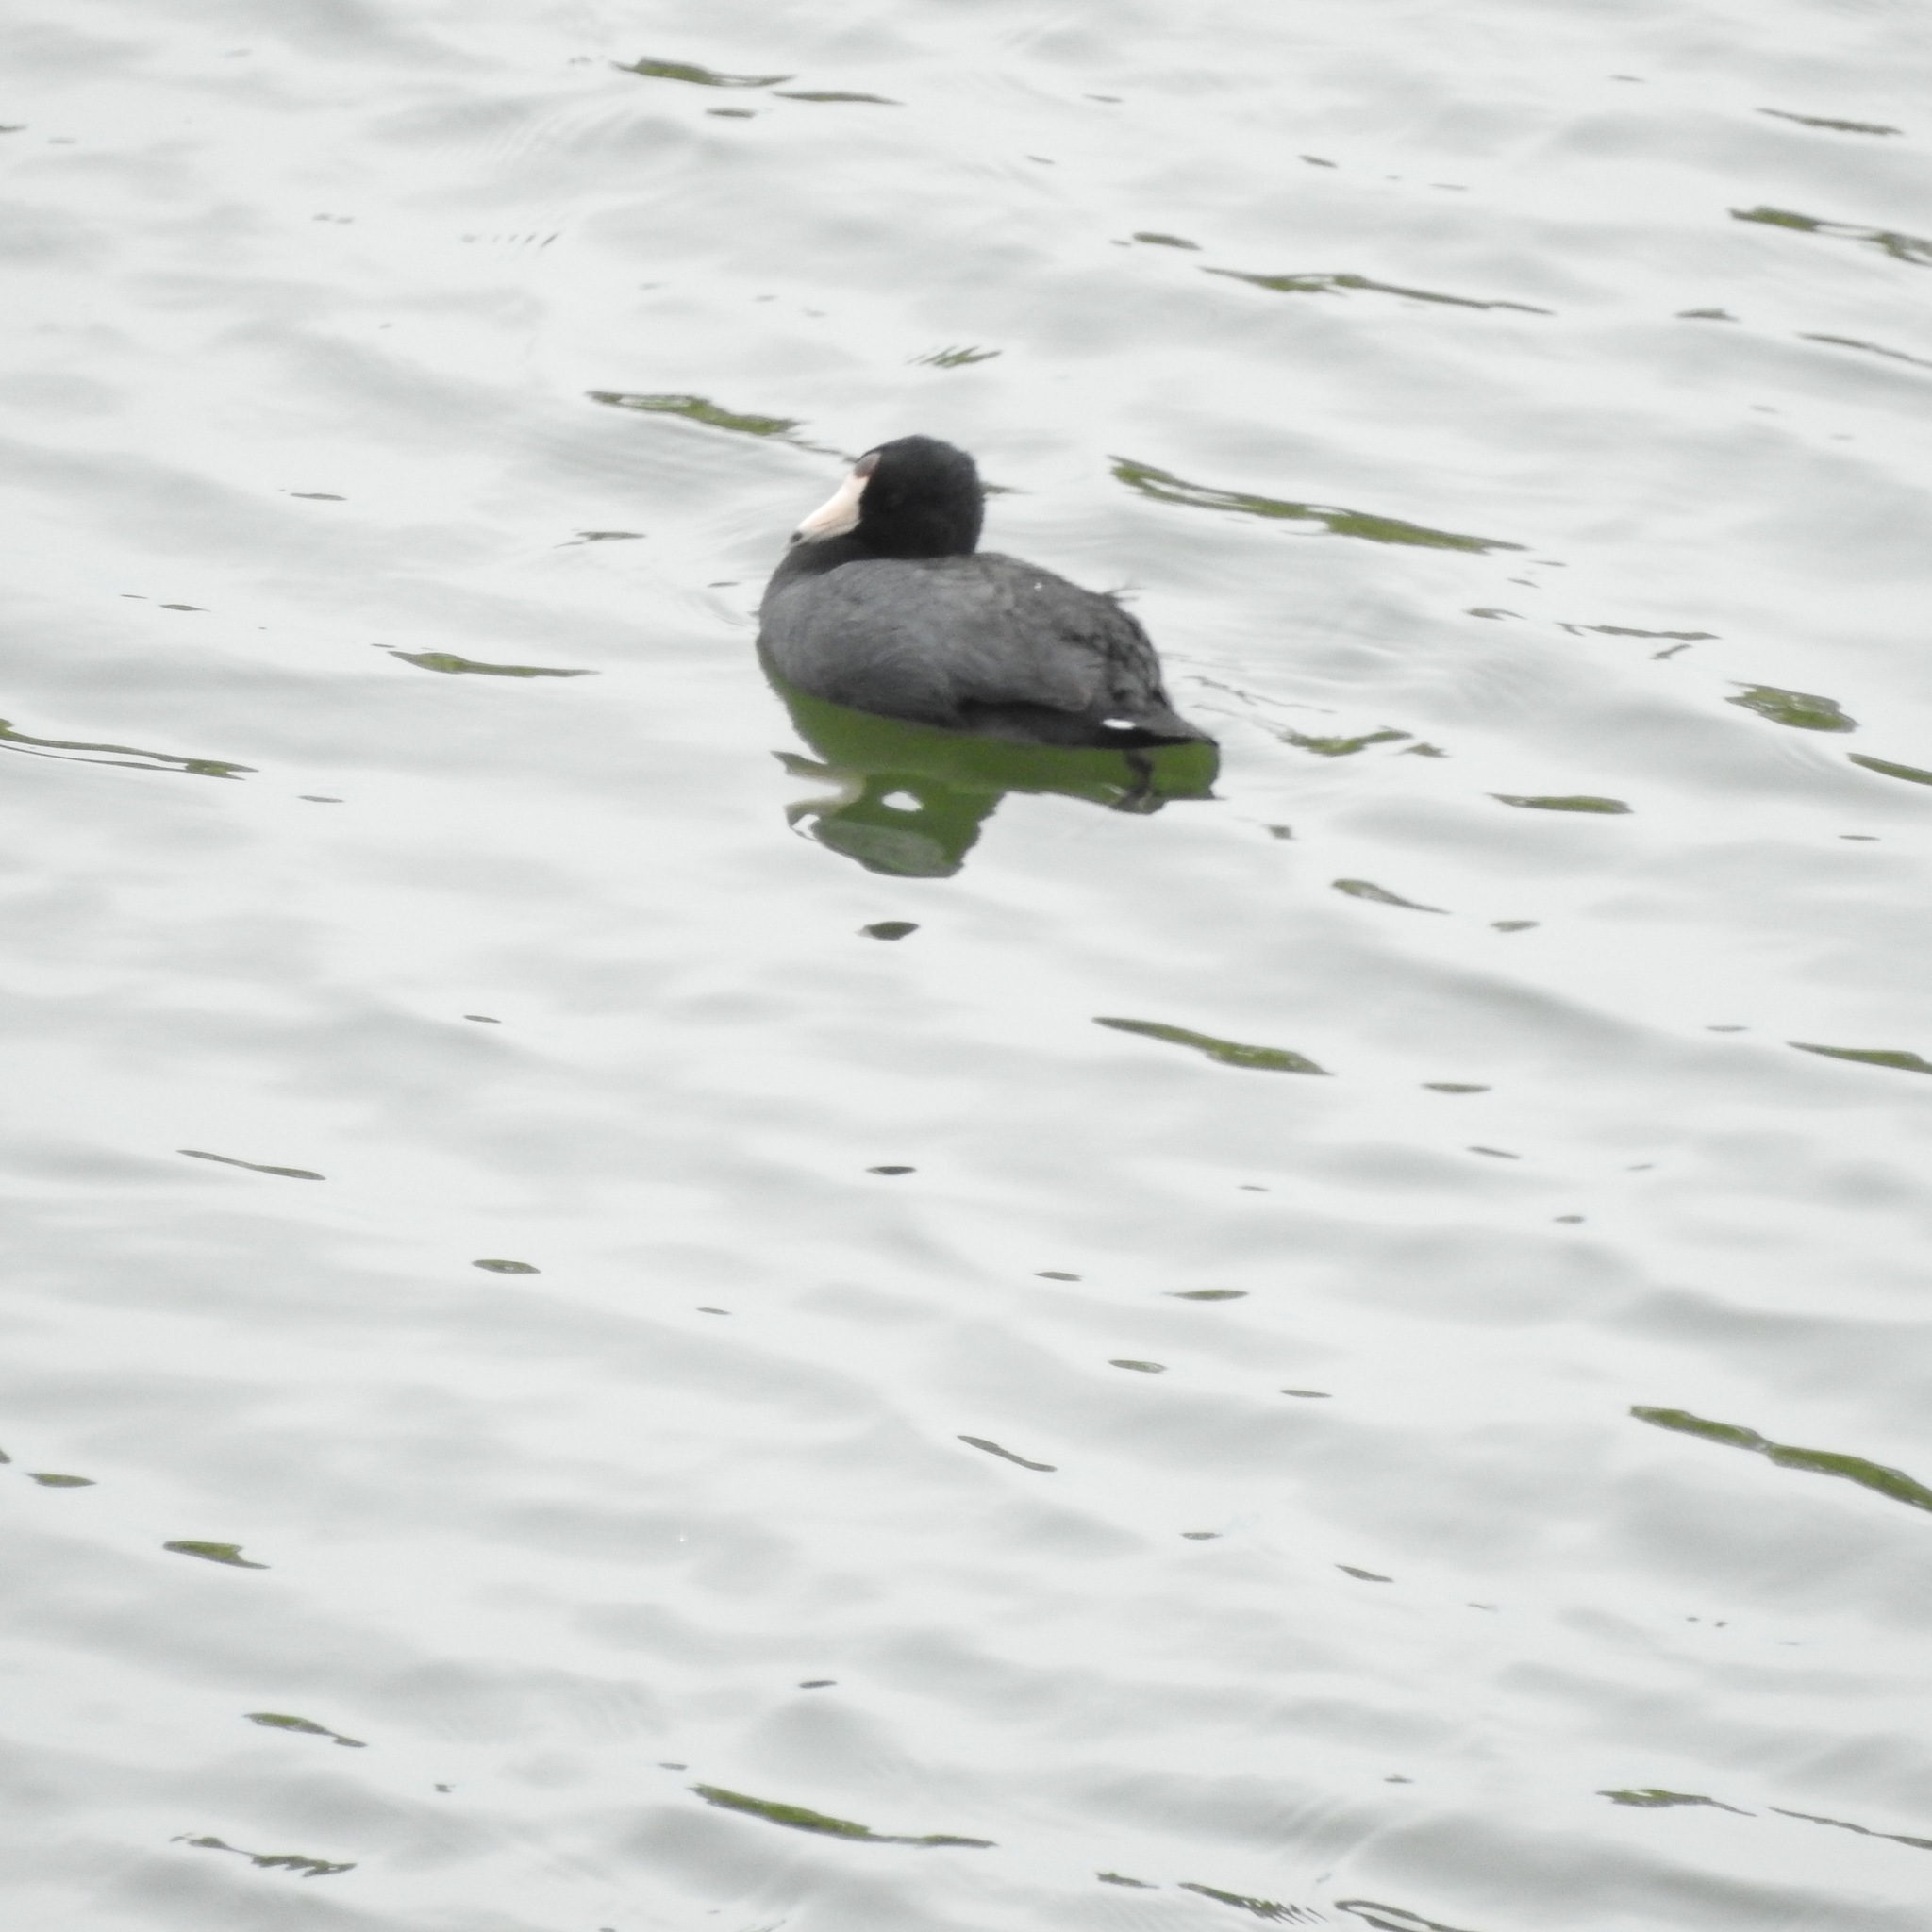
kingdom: Animalia
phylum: Chordata
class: Aves
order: Gruiformes
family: Rallidae
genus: Fulica
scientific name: Fulica americana
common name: American coot
